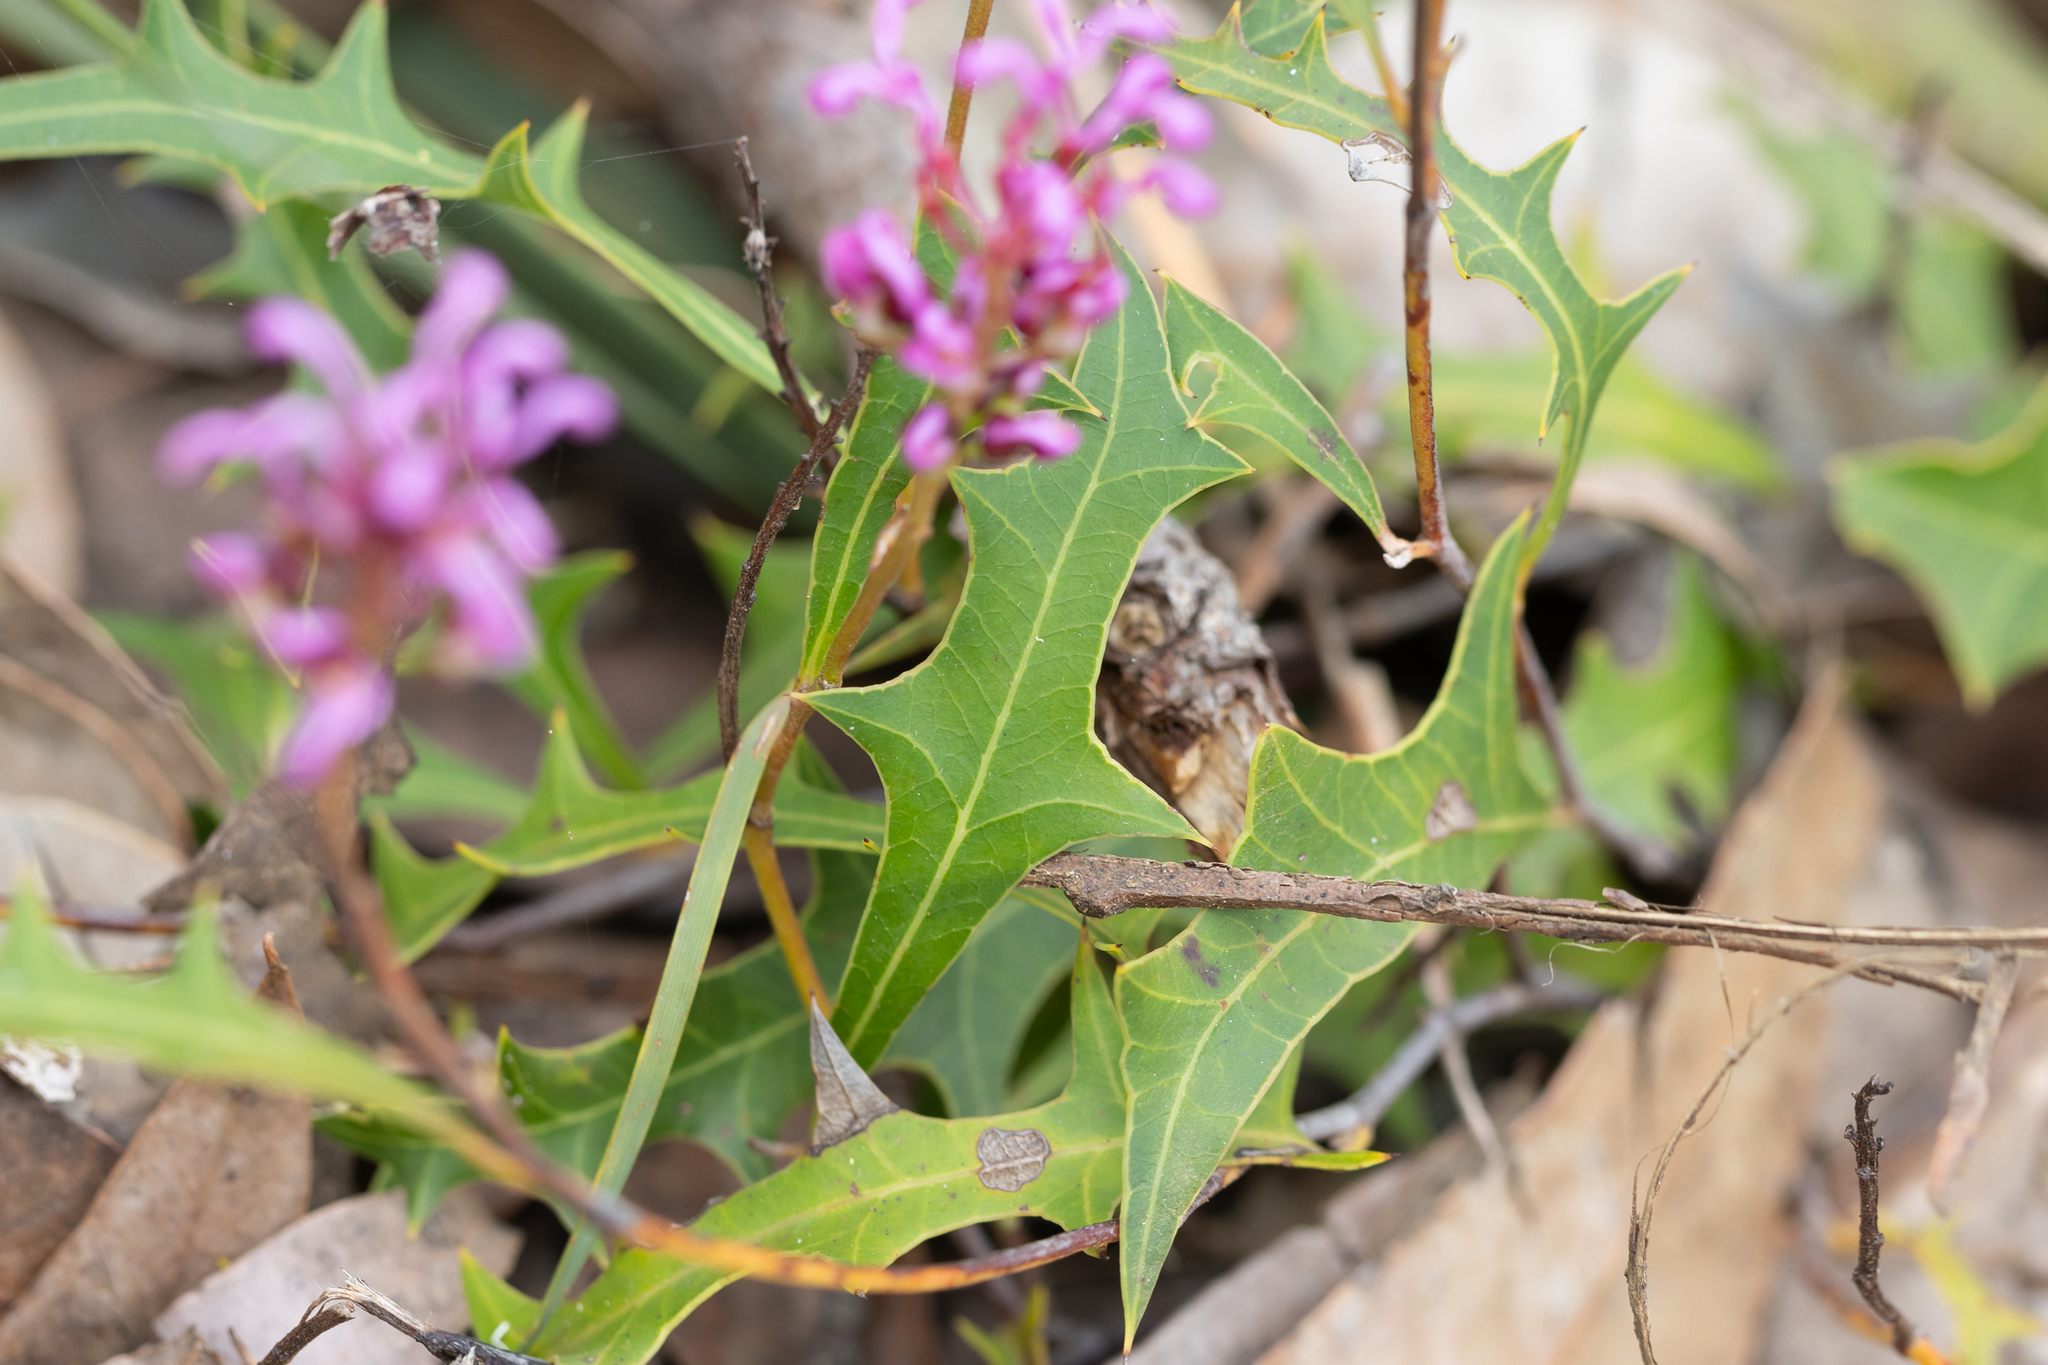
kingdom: Plantae
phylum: Tracheophyta
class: Magnoliopsida
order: Proteales
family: Proteaceae
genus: Grevillea
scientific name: Grevillea quercifolia
